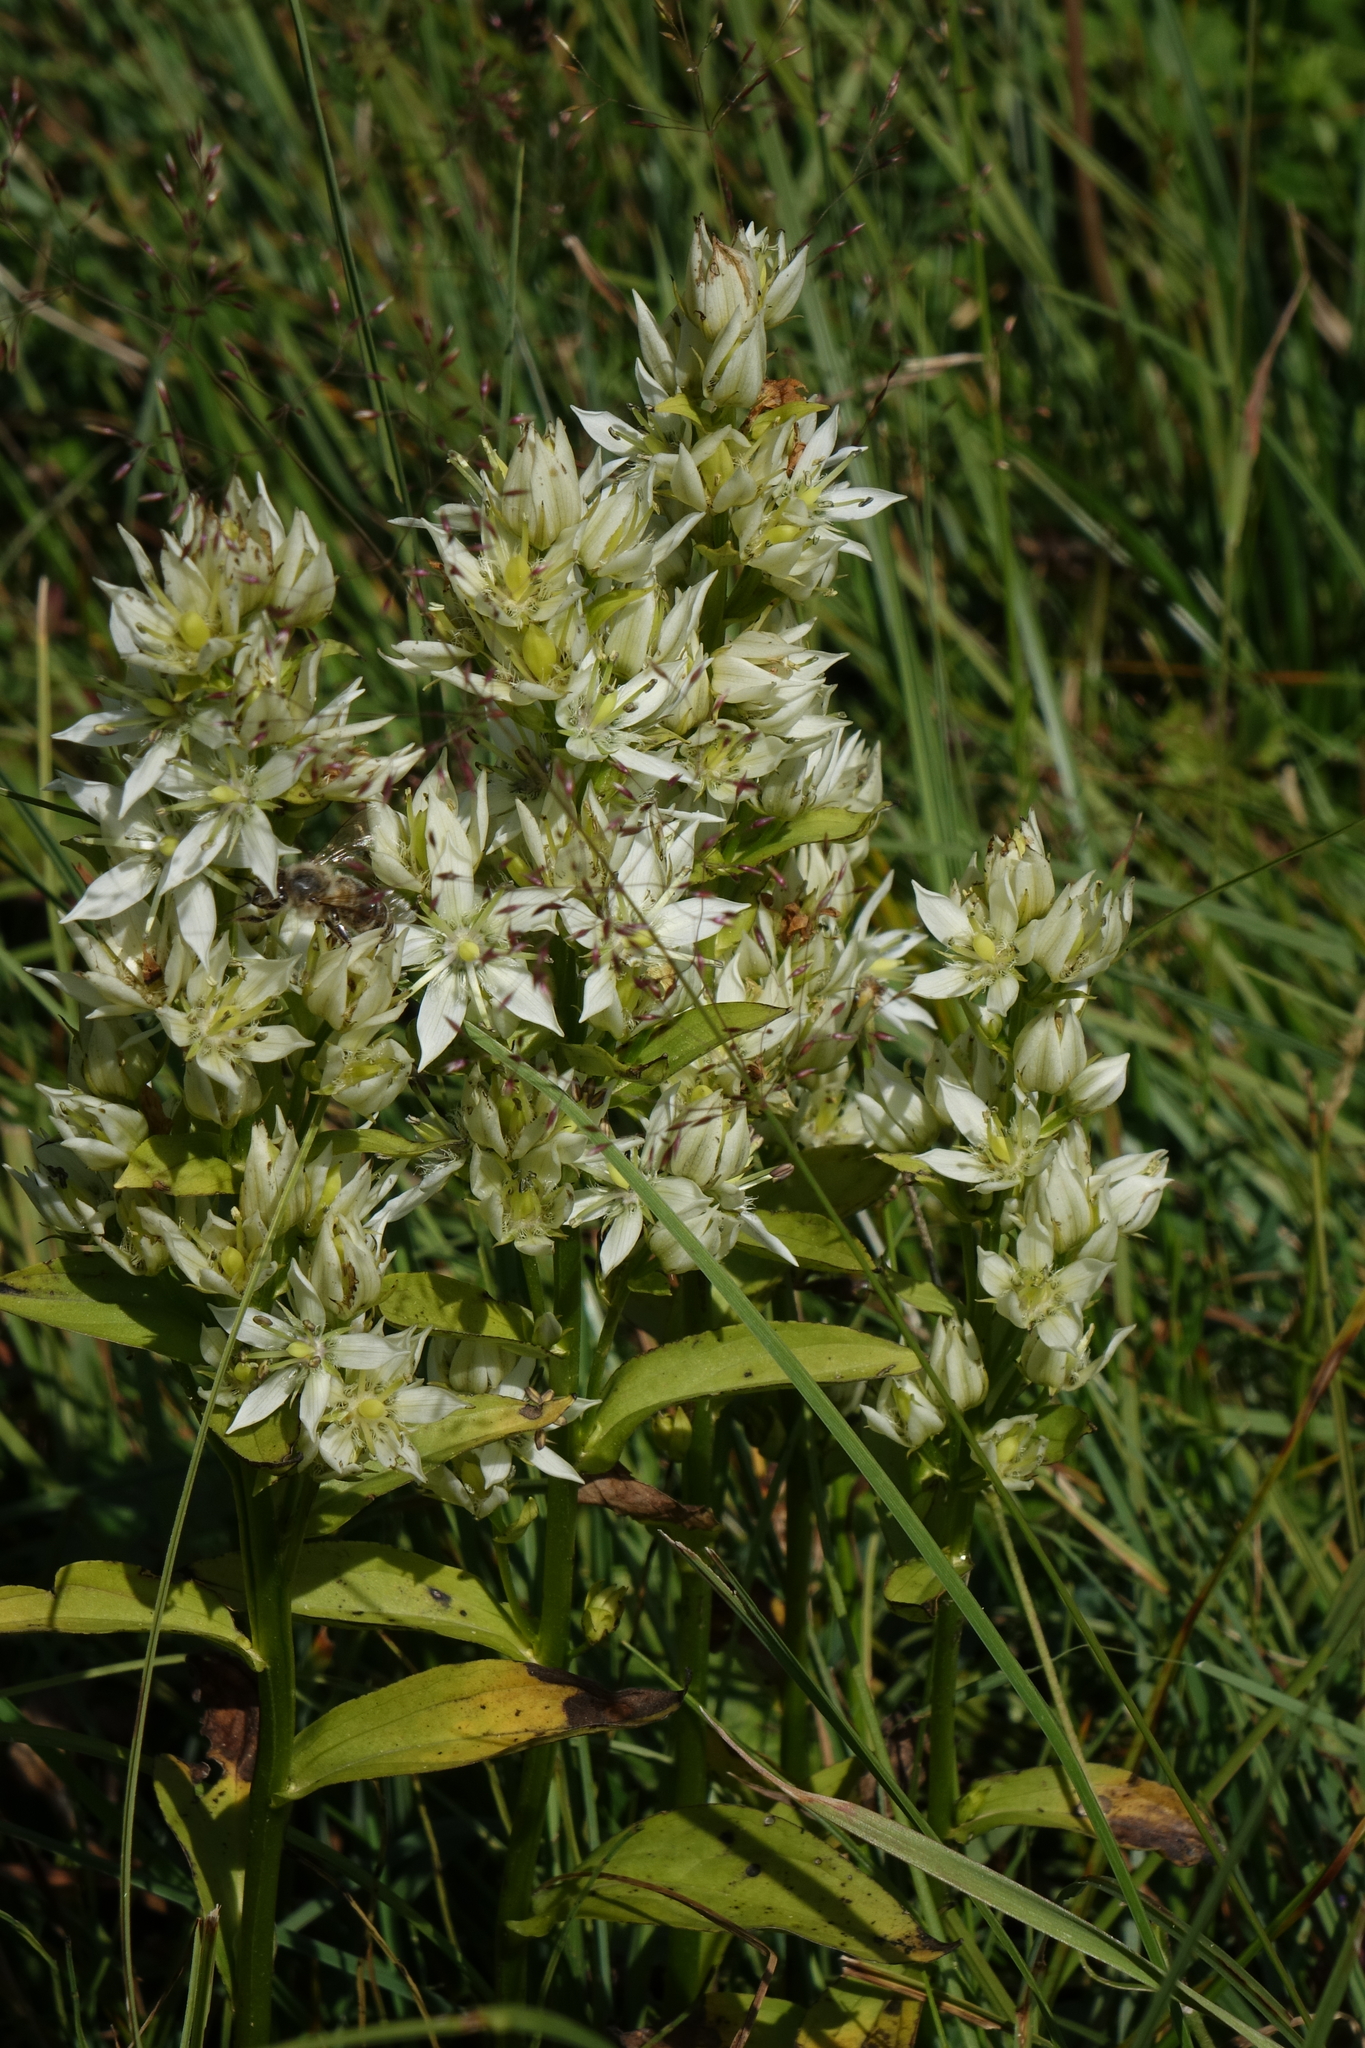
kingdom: Plantae
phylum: Tracheophyta
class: Magnoliopsida
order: Gentianales
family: Gentianaceae
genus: Swertia
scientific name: Swertia iberica
